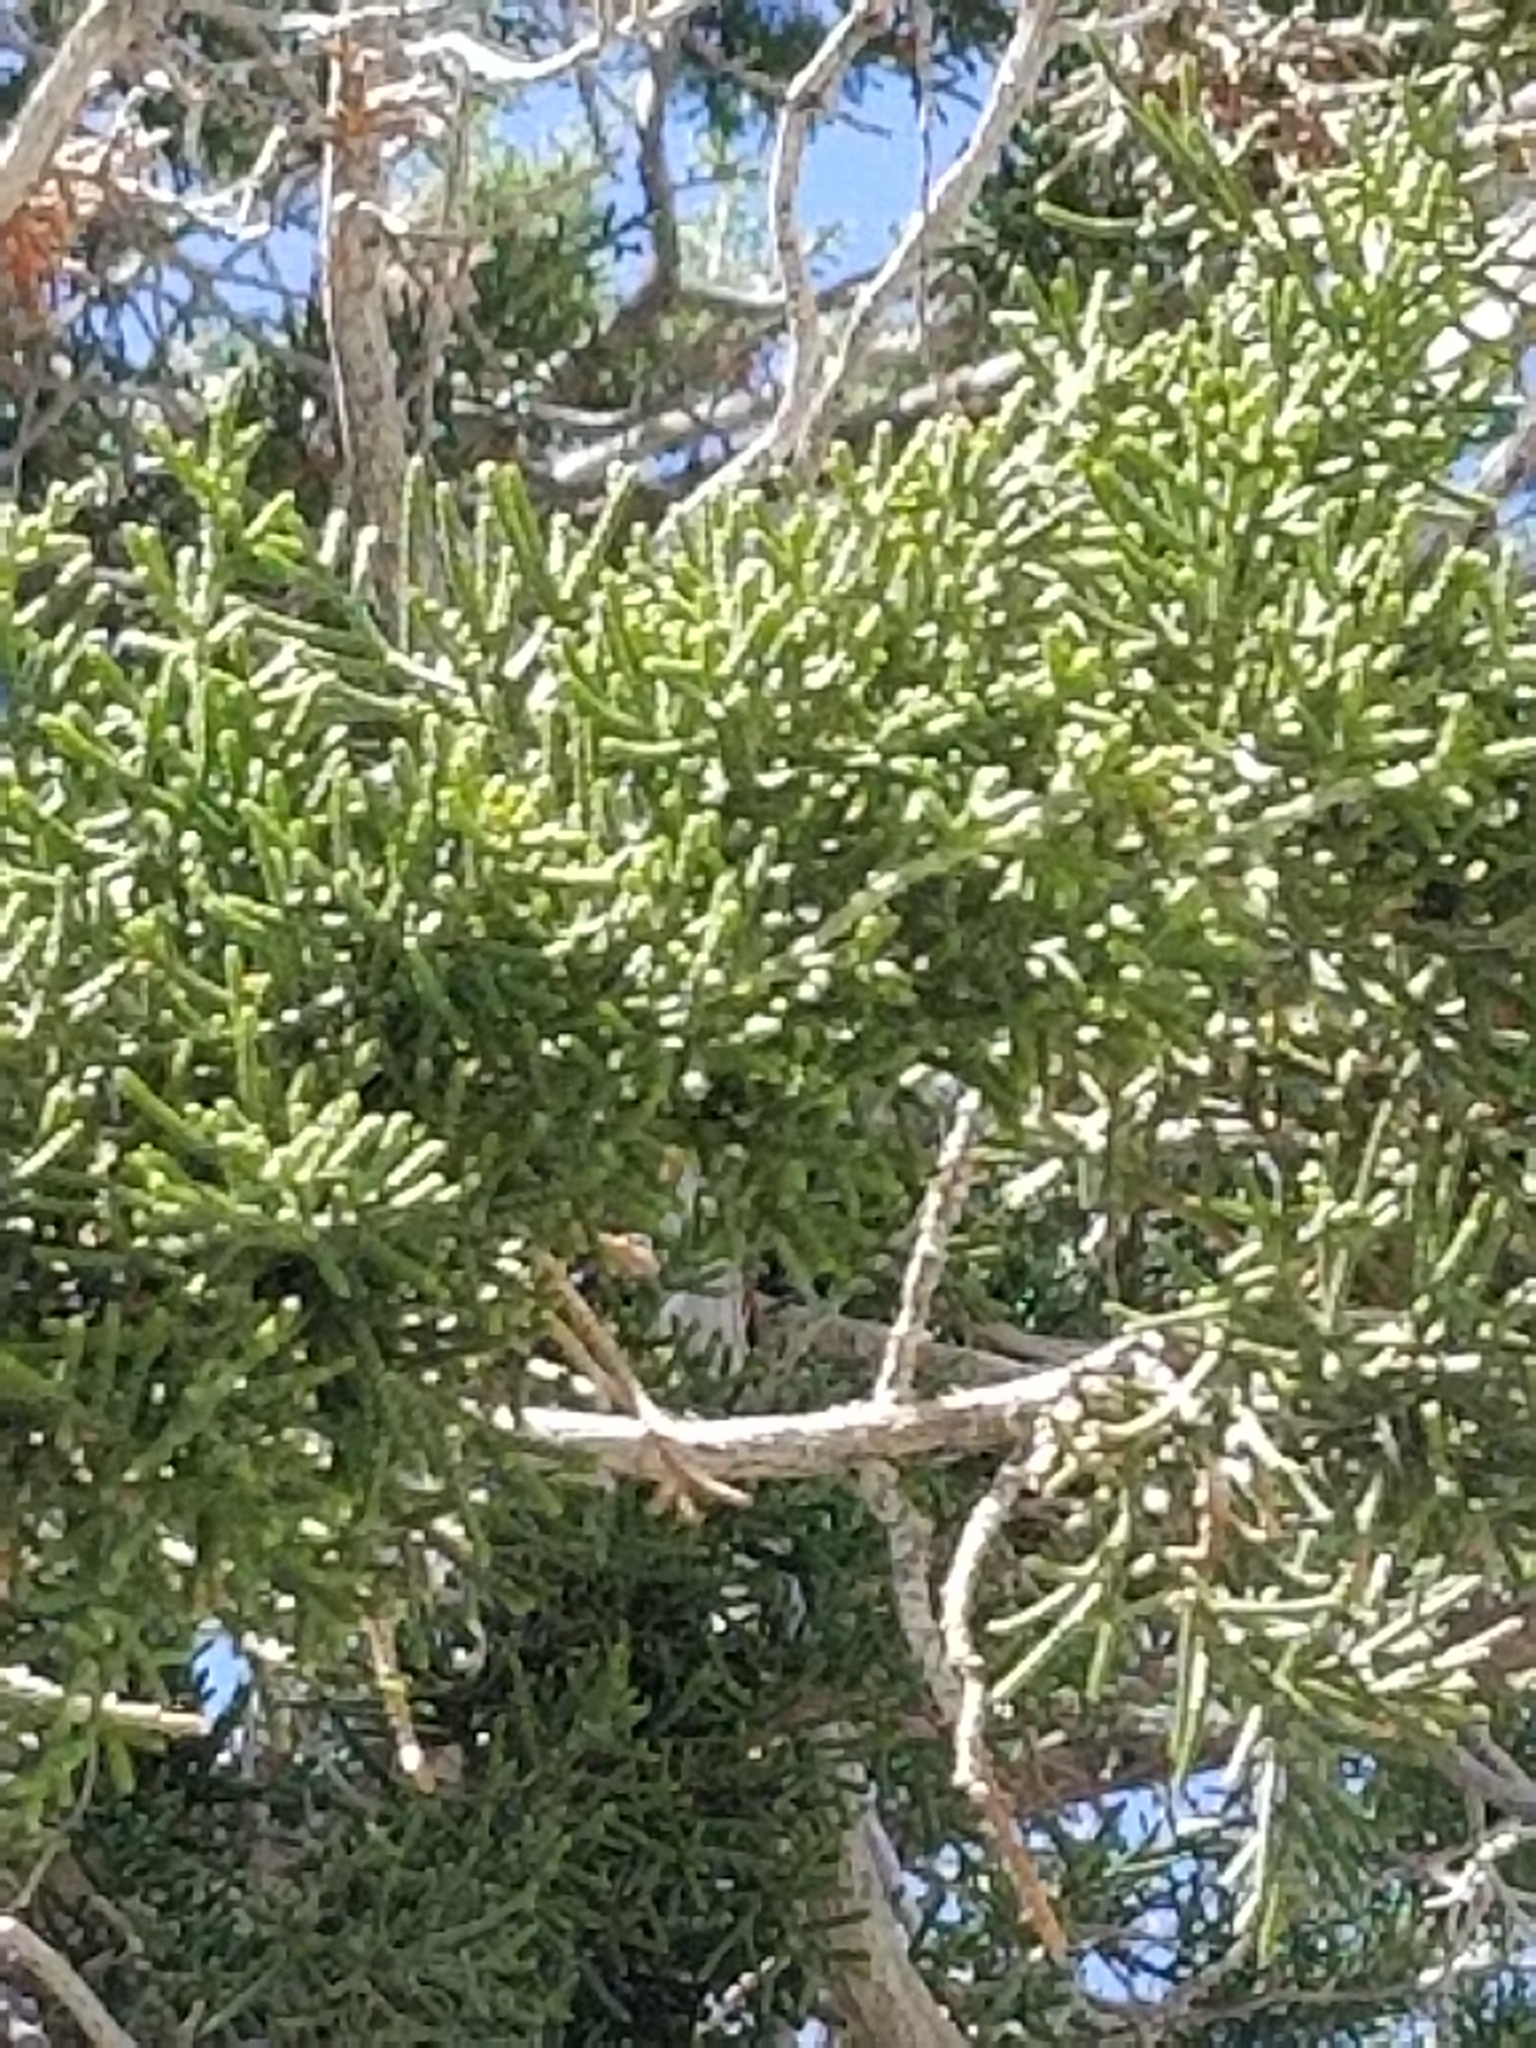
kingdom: Plantae
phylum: Tracheophyta
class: Pinopsida
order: Pinales
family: Cupressaceae
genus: Juniperus
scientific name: Juniperus californica
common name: California juniper
